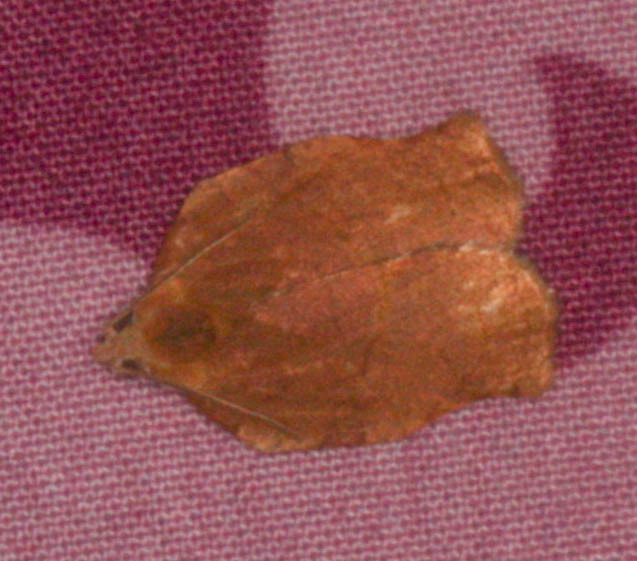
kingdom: Animalia
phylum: Arthropoda
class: Insecta
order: Lepidoptera
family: Tortricidae
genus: Archips
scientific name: Archips purpurana
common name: Omnivorous leafroller
